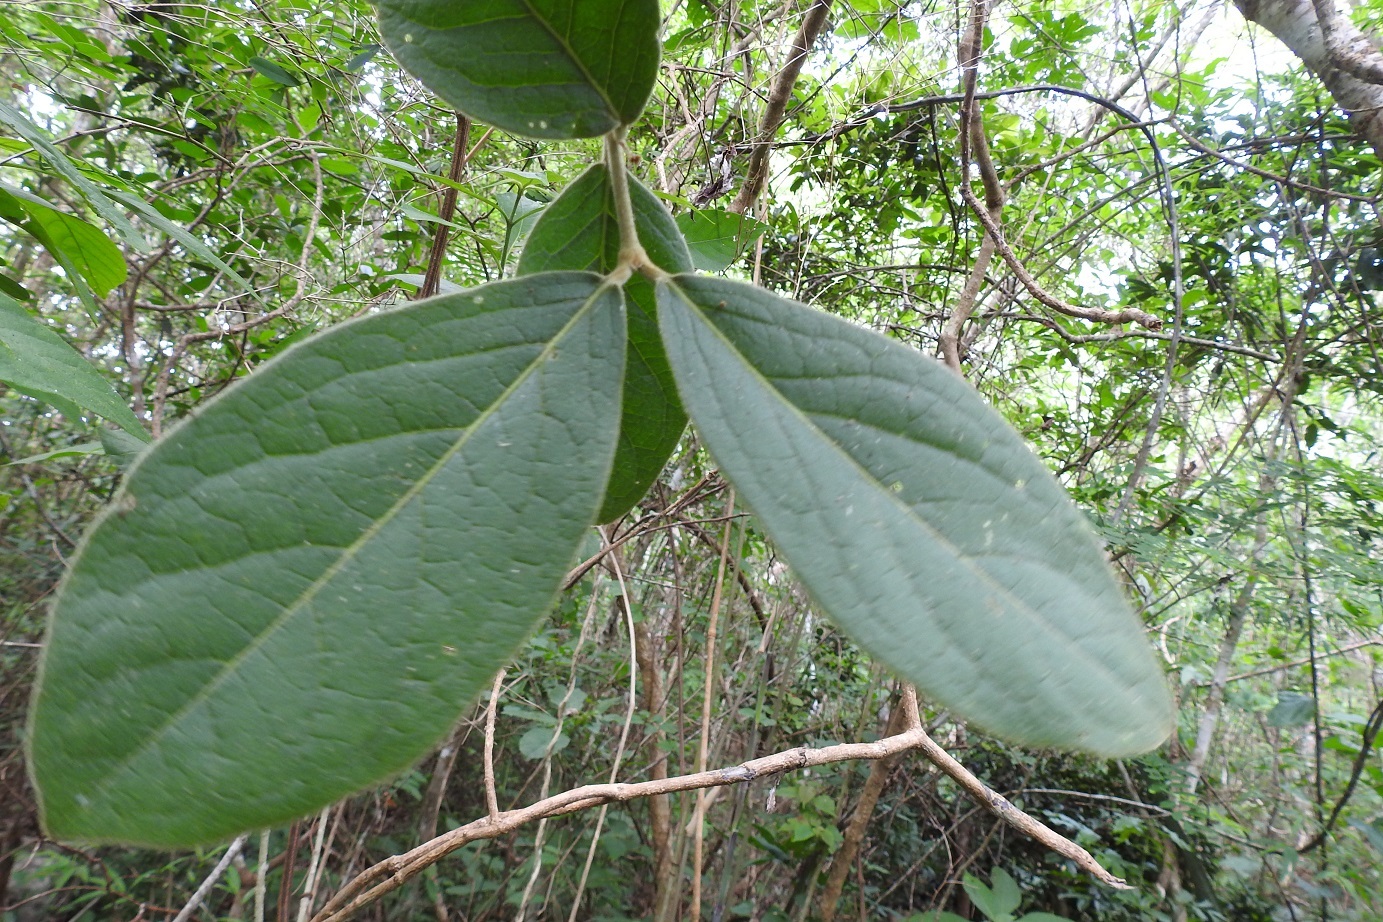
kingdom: Plantae
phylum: Tracheophyta
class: Magnoliopsida
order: Malpighiales
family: Malpighiaceae
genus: Bunchosia
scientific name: Bunchosia breedlovei
